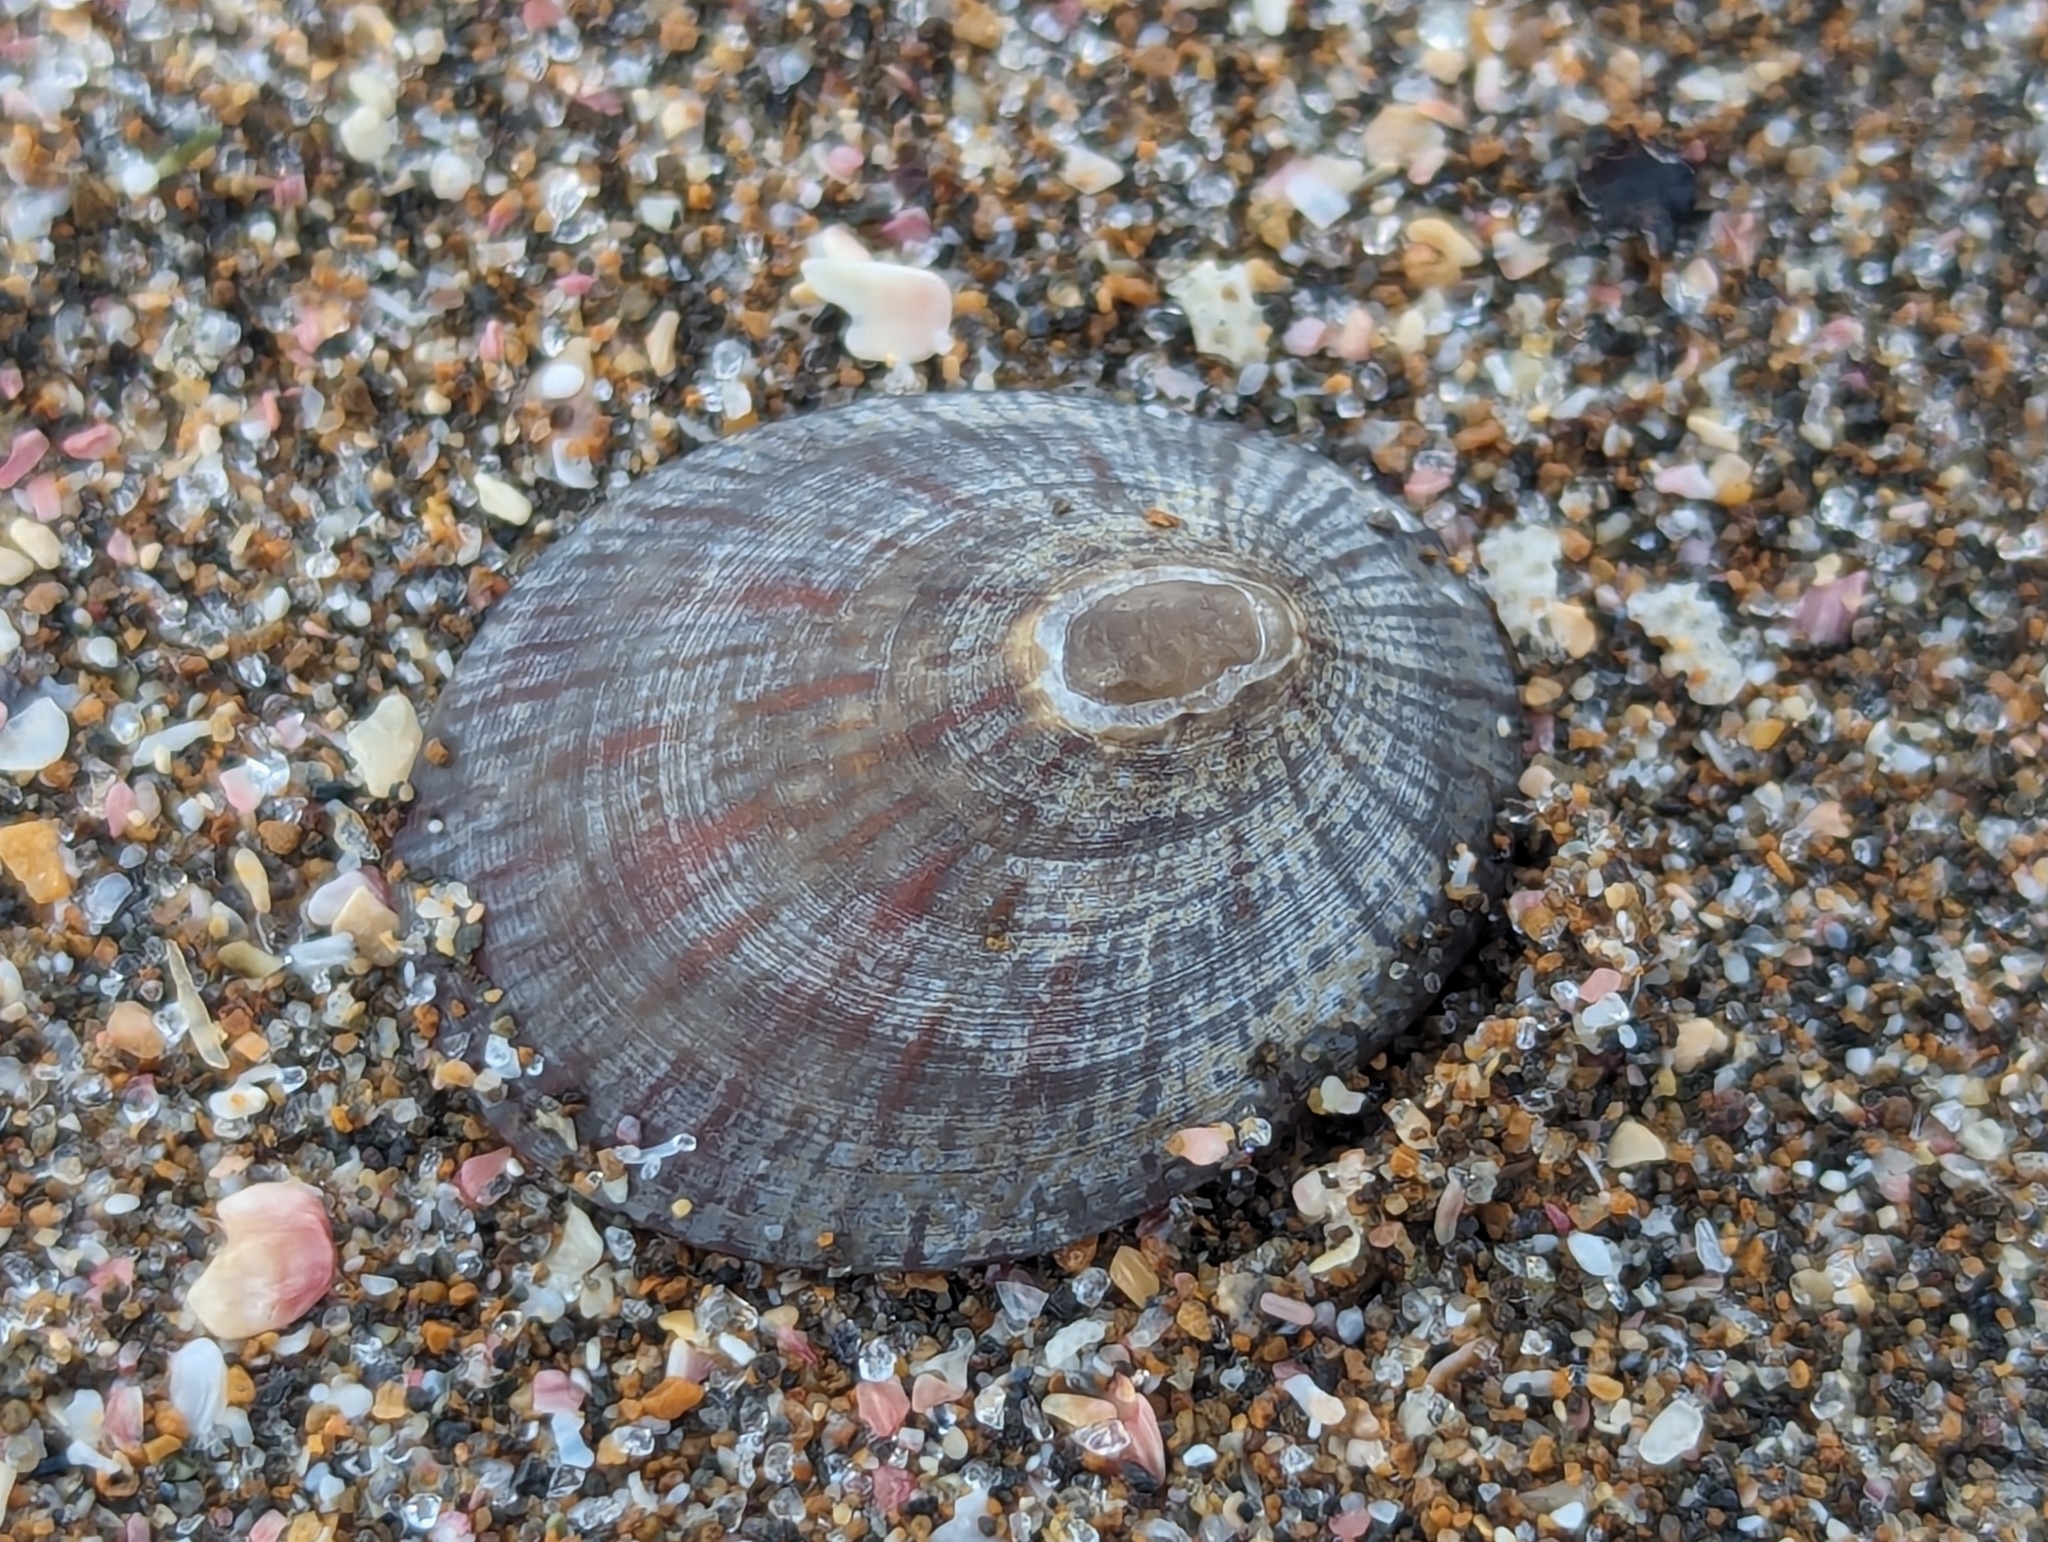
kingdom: Animalia
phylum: Mollusca
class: Gastropoda
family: Nacellidae
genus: Cellana
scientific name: Cellana radians
